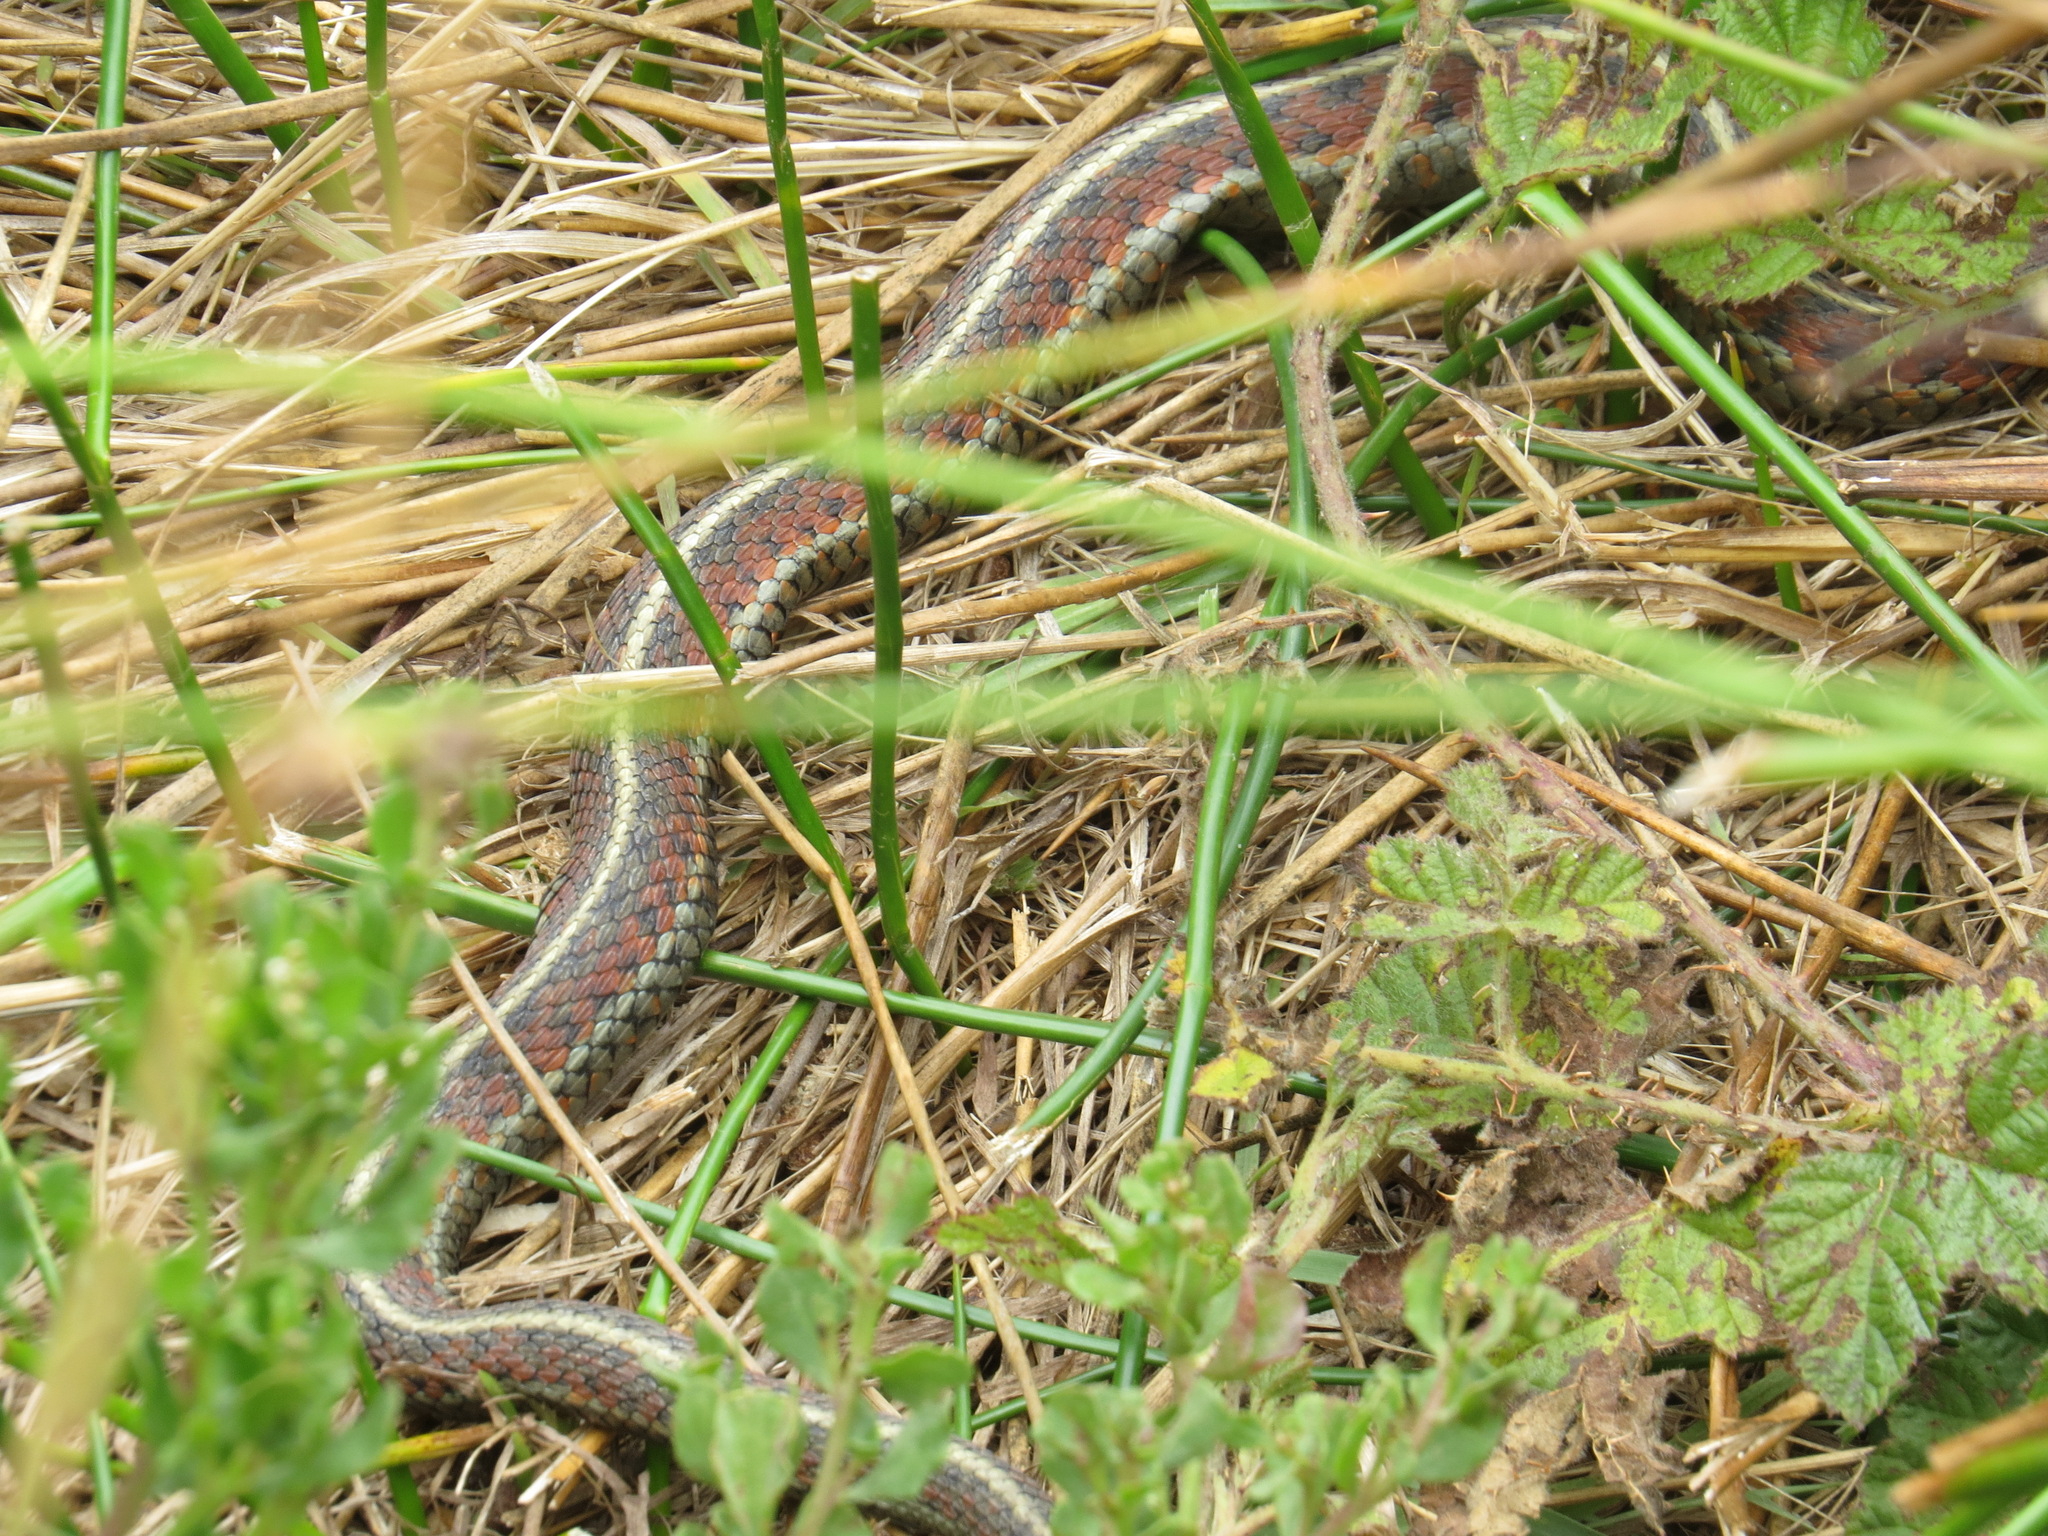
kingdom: Animalia
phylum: Chordata
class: Squamata
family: Colubridae
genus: Thamnophis
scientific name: Thamnophis elegans
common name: Western terrestrial garter snake
